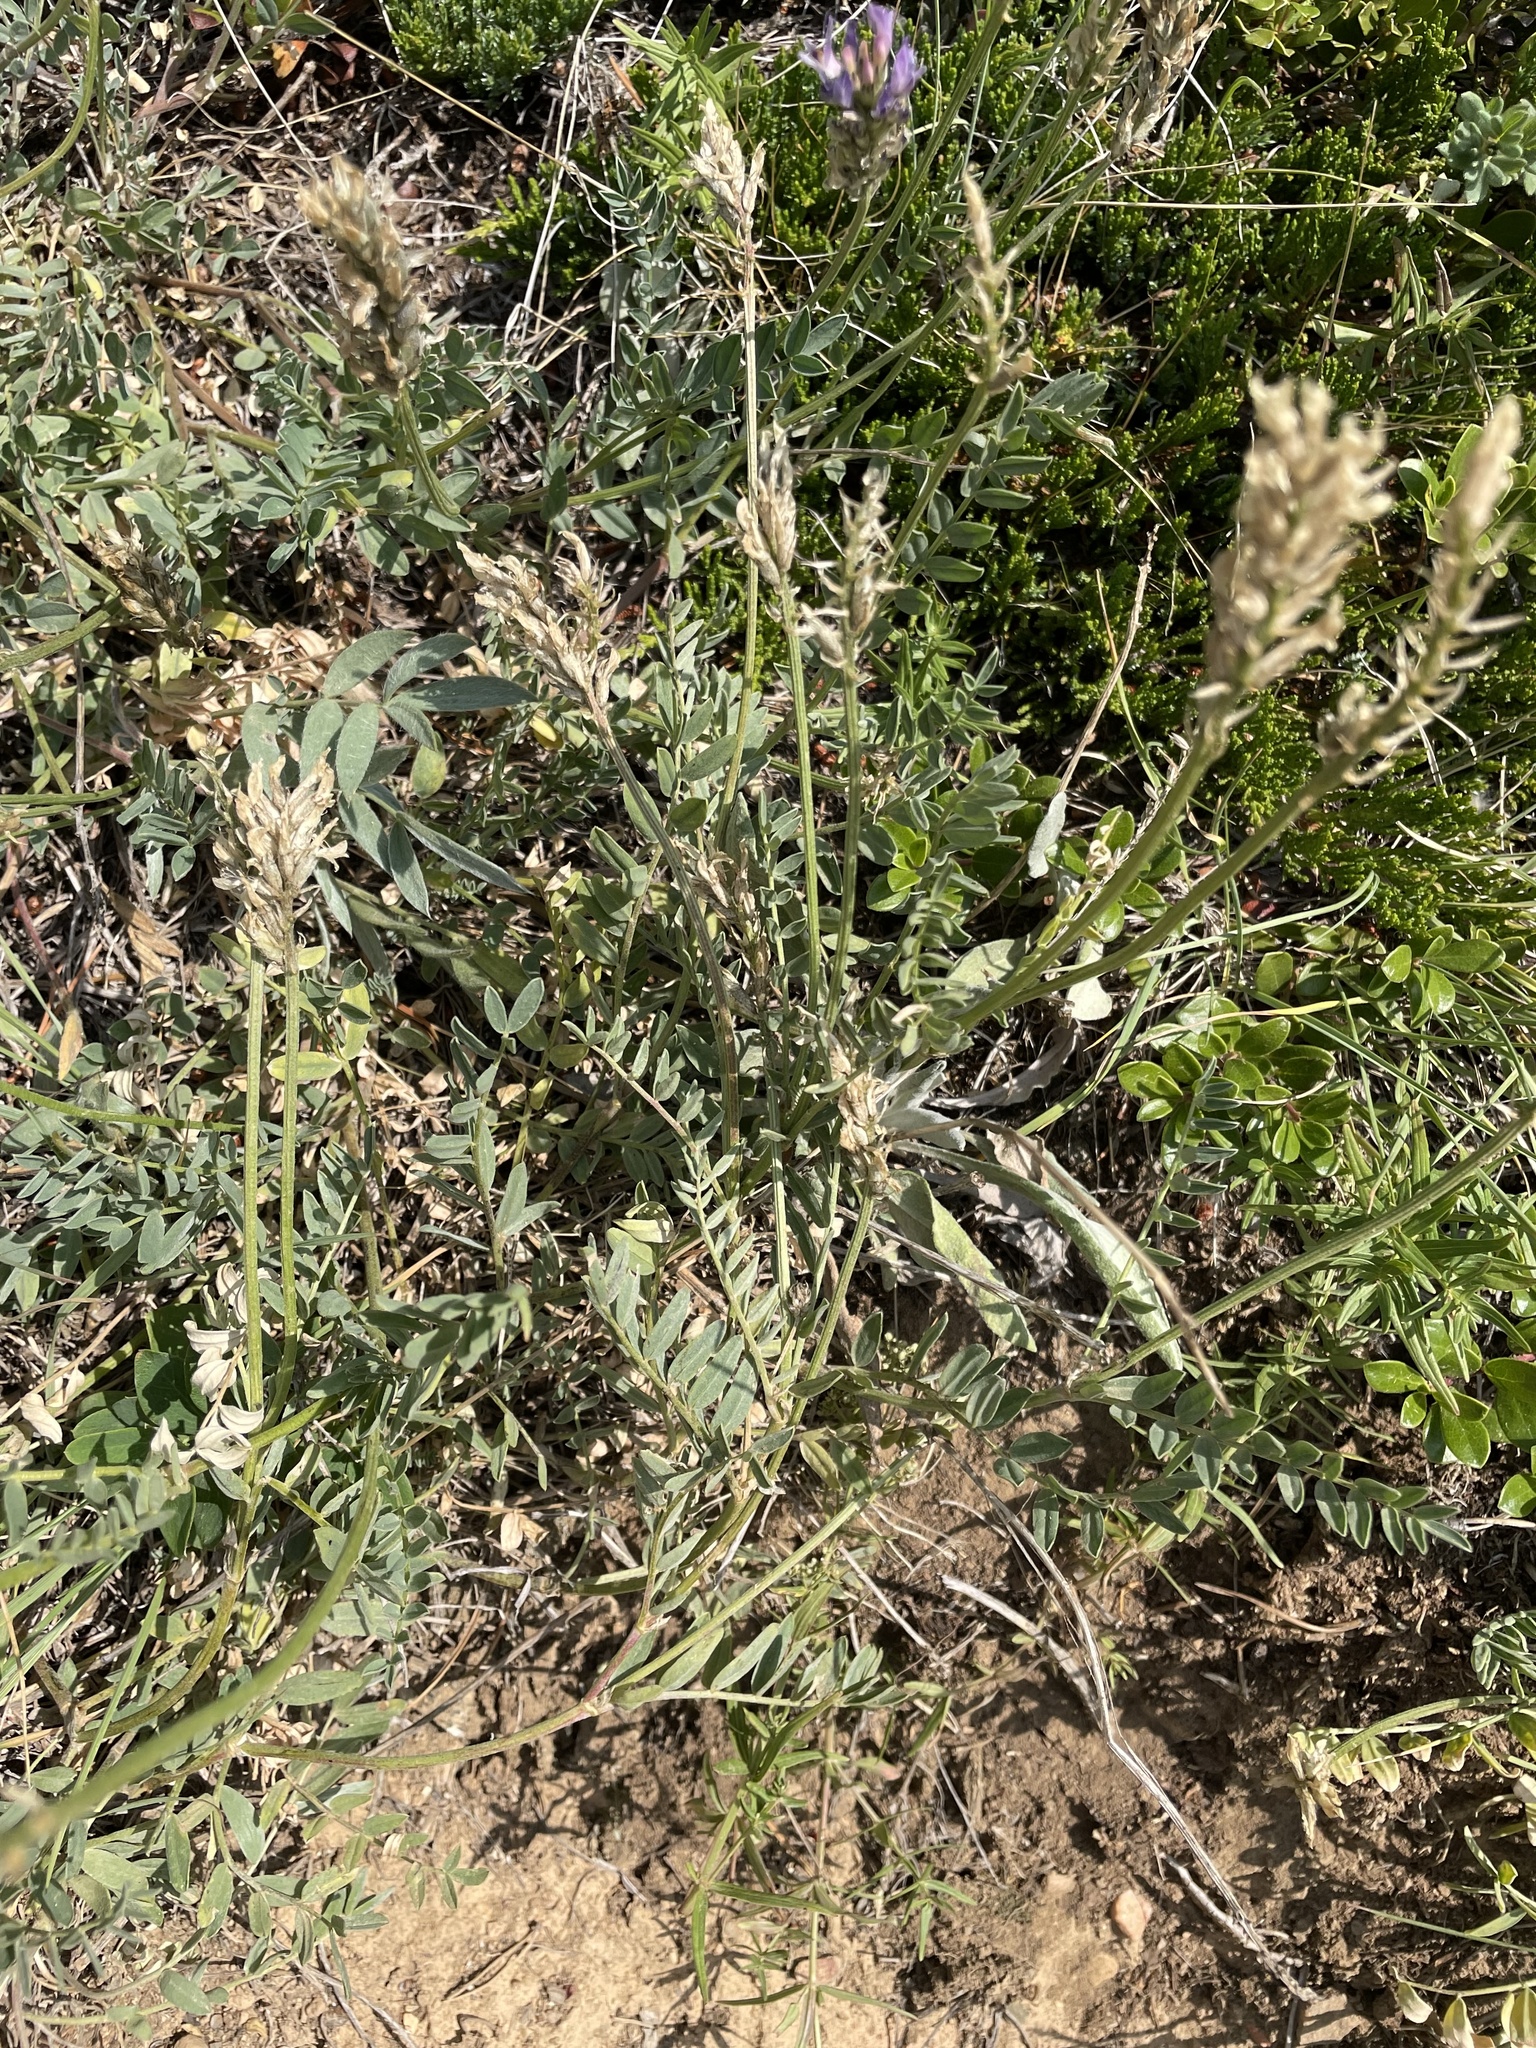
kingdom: Plantae
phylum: Tracheophyta
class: Magnoliopsida
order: Fabales
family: Fabaceae
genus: Astragalus
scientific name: Astragalus laxmannii
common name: Laxmann's milk-vetch
